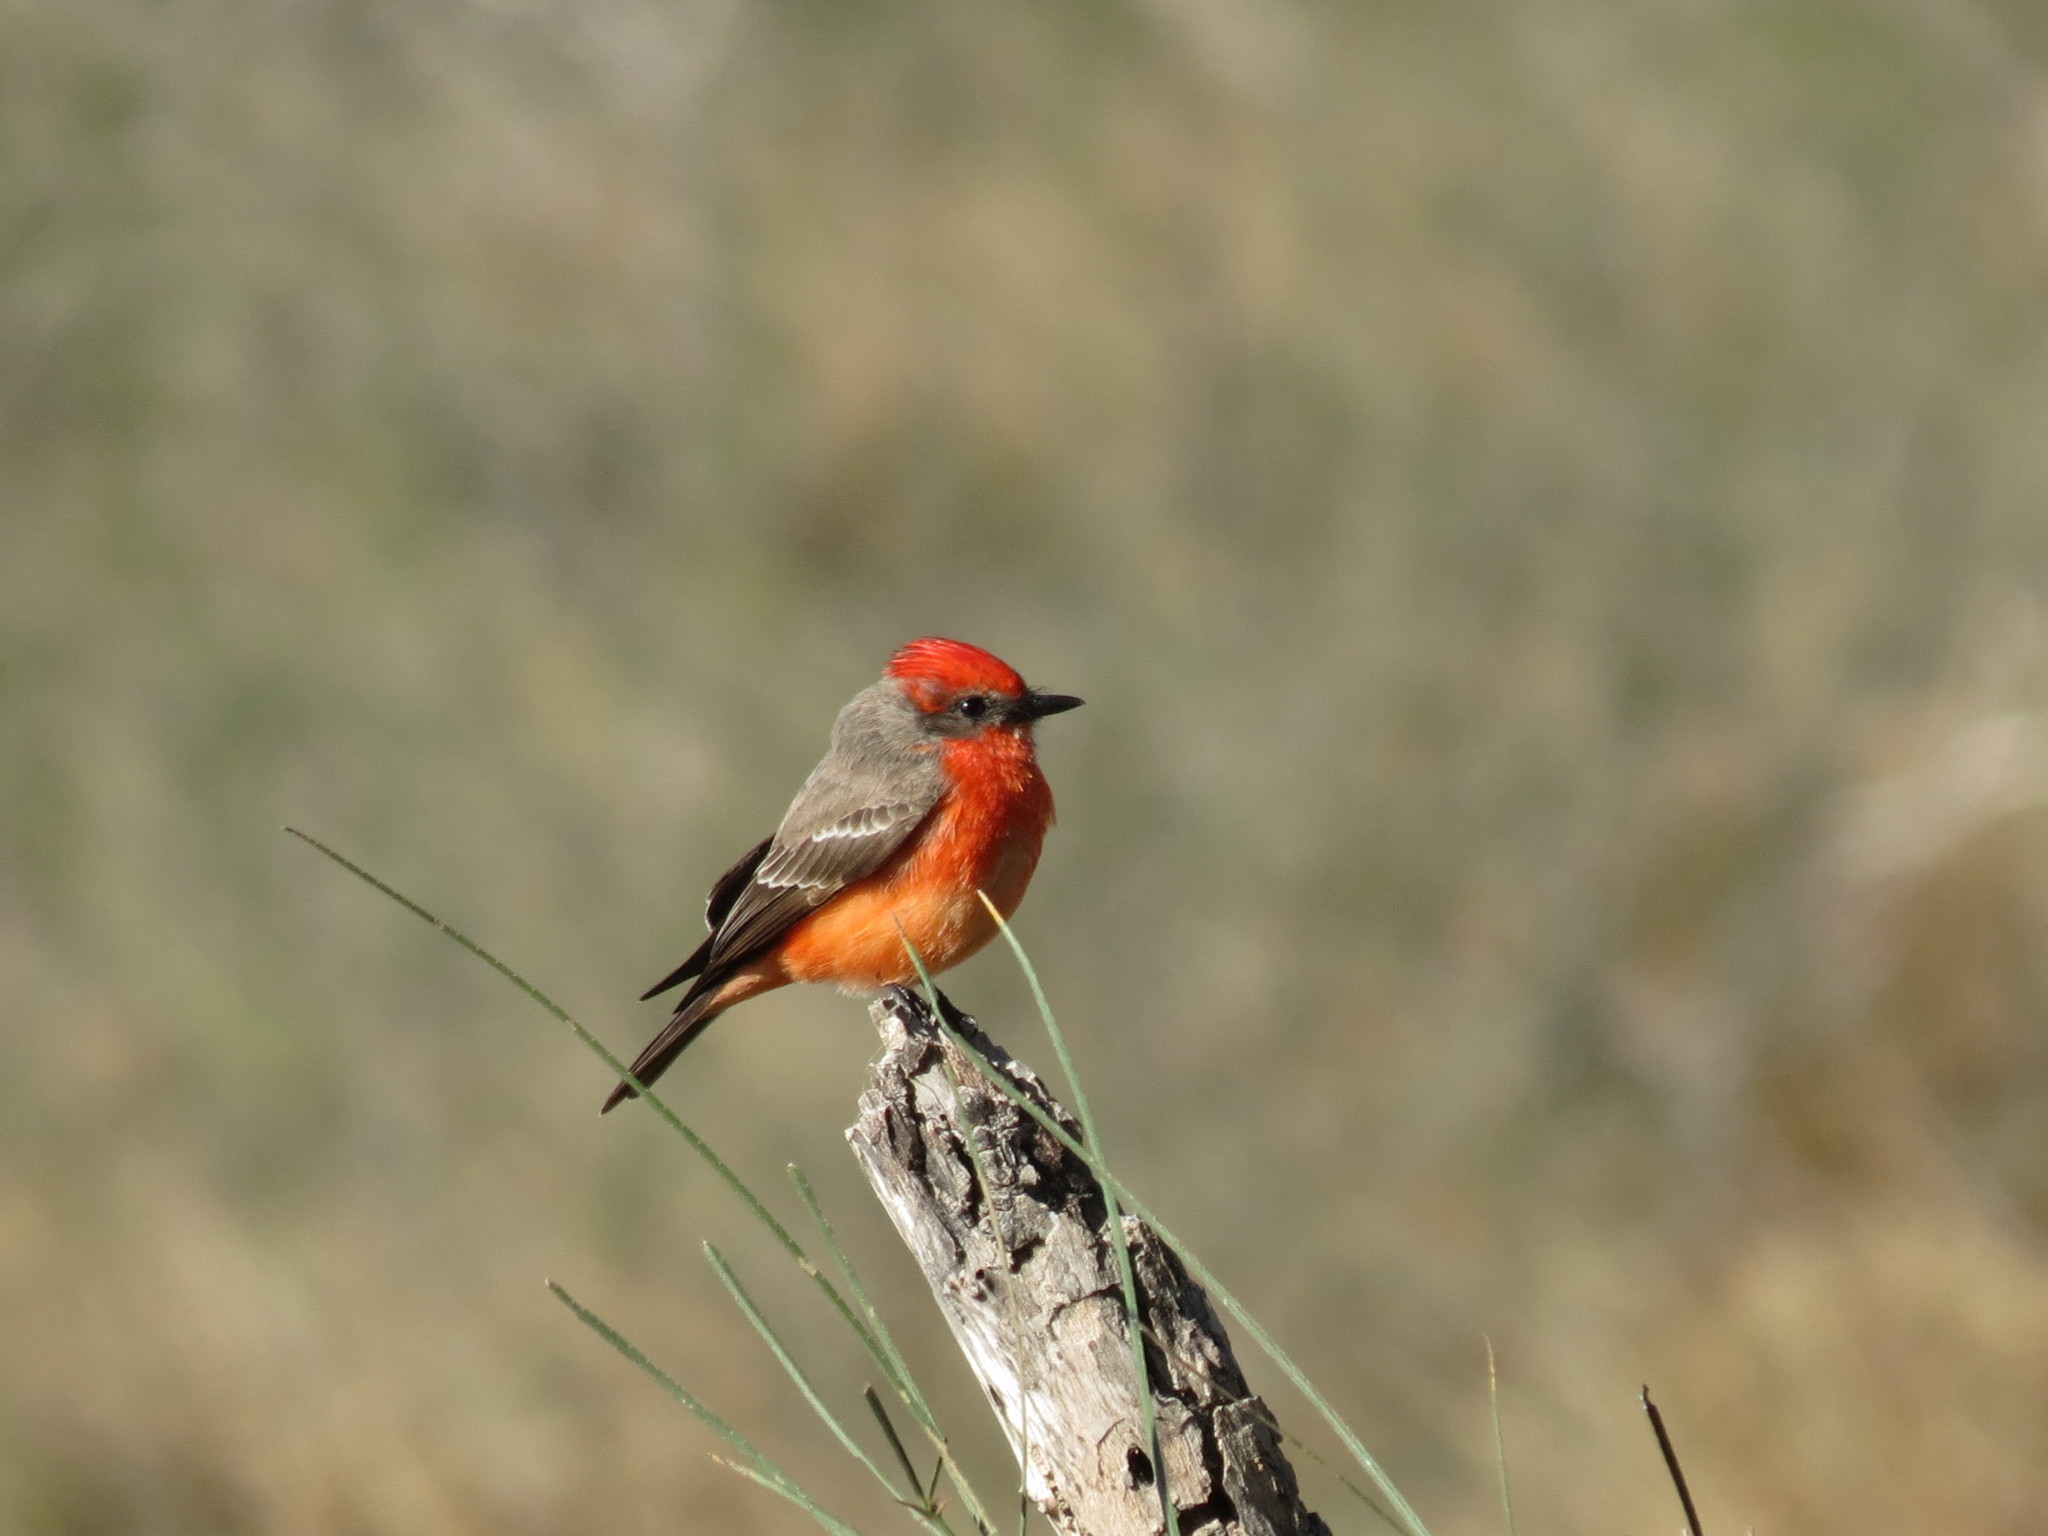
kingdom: Animalia
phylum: Chordata
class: Aves
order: Passeriformes
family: Tyrannidae
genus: Pyrocephalus
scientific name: Pyrocephalus rubinus
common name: Vermilion flycatcher
